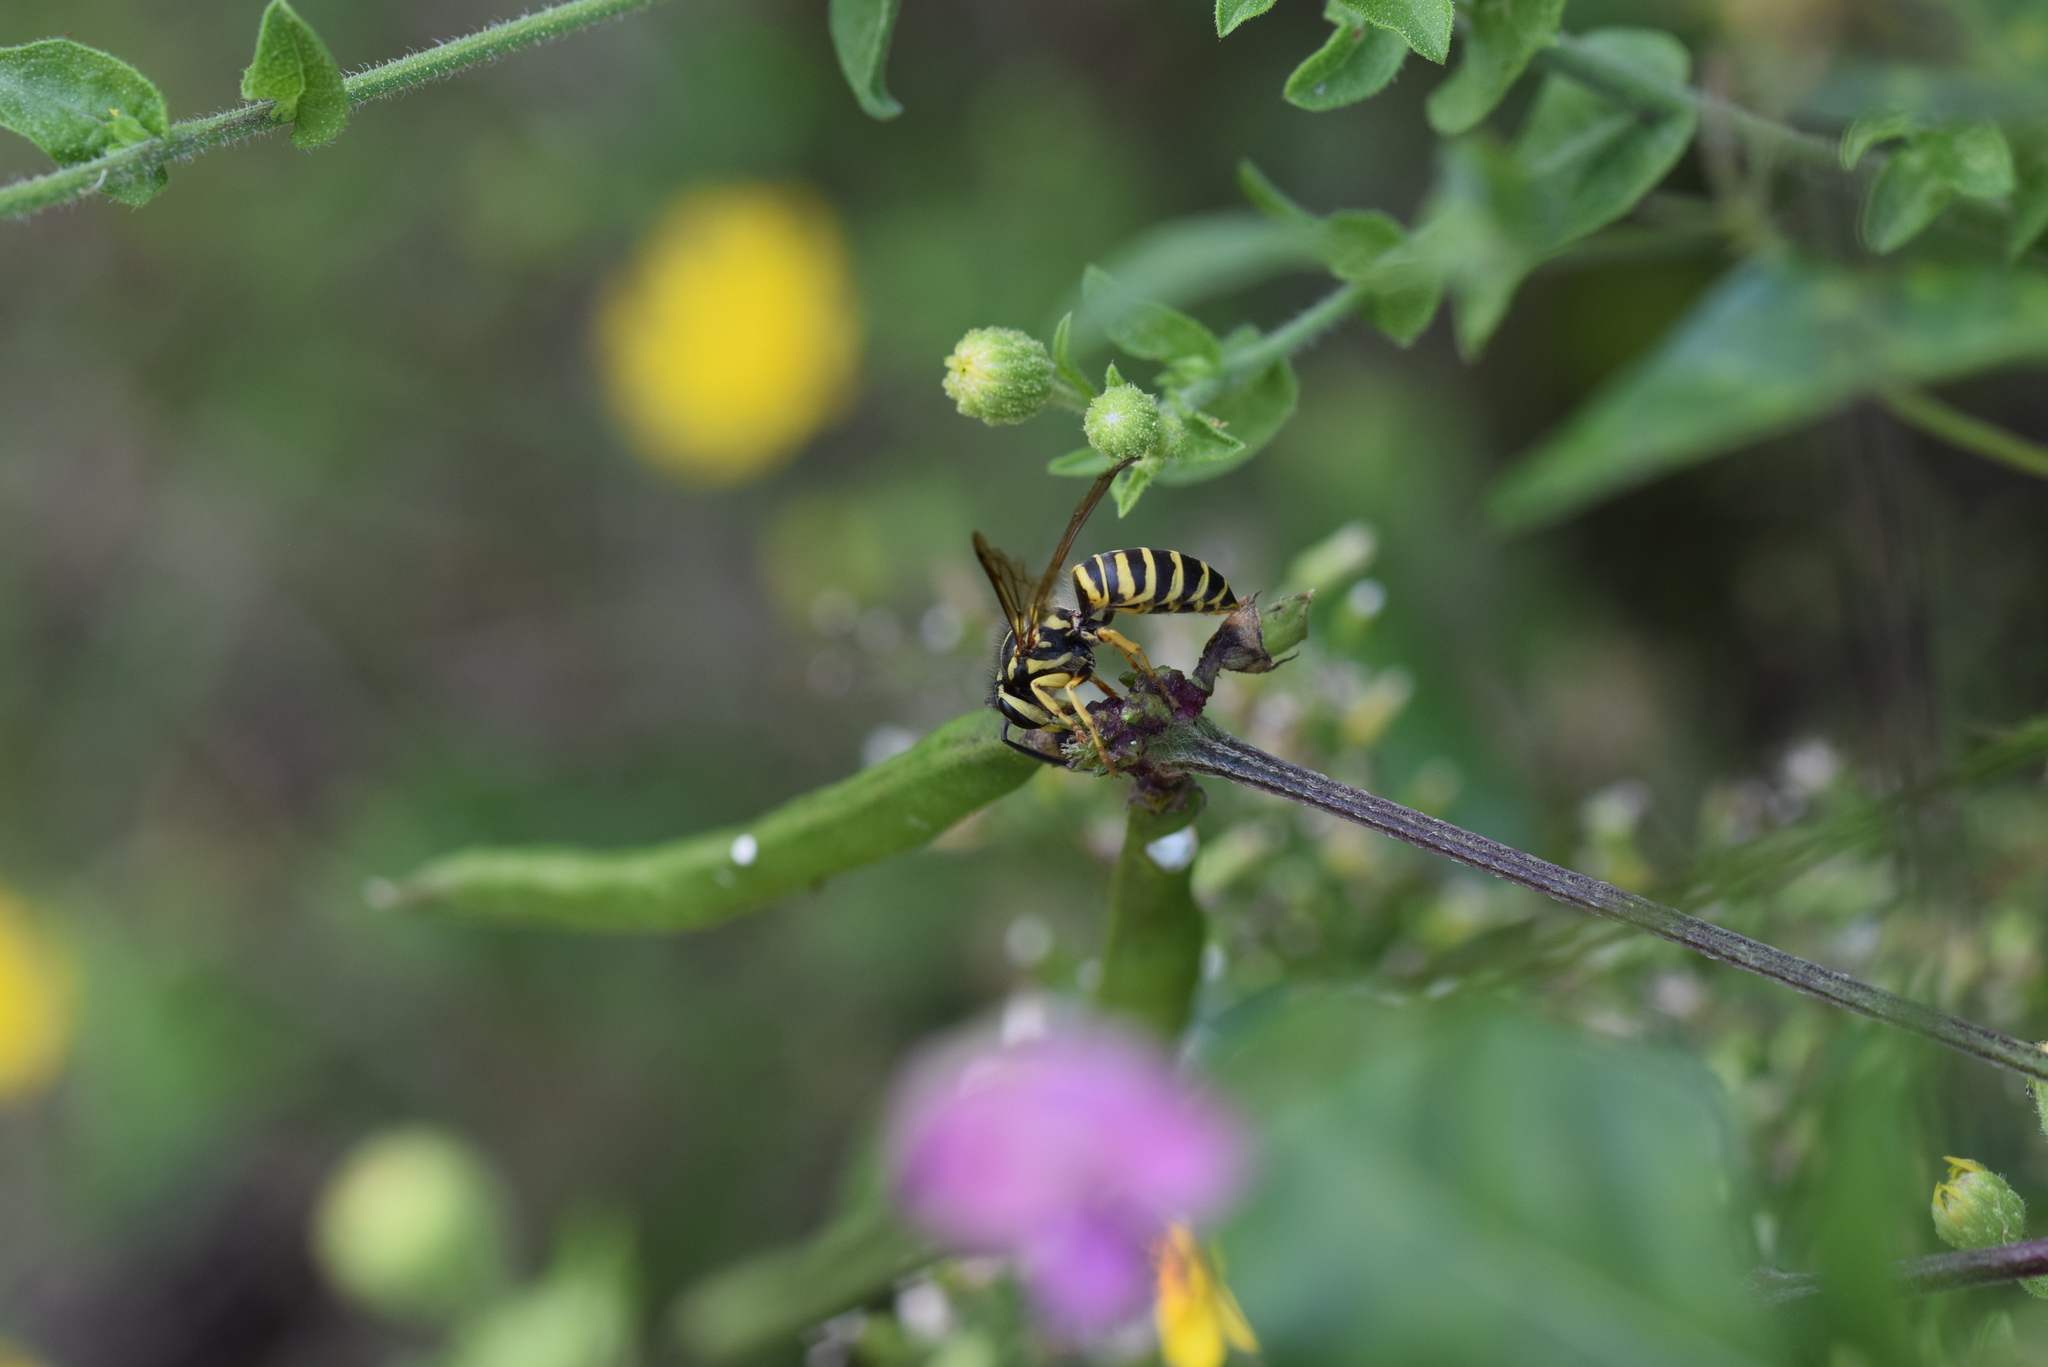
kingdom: Animalia
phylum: Arthropoda
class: Insecta
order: Hymenoptera
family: Vespidae
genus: Vespula
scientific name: Vespula squamosa
